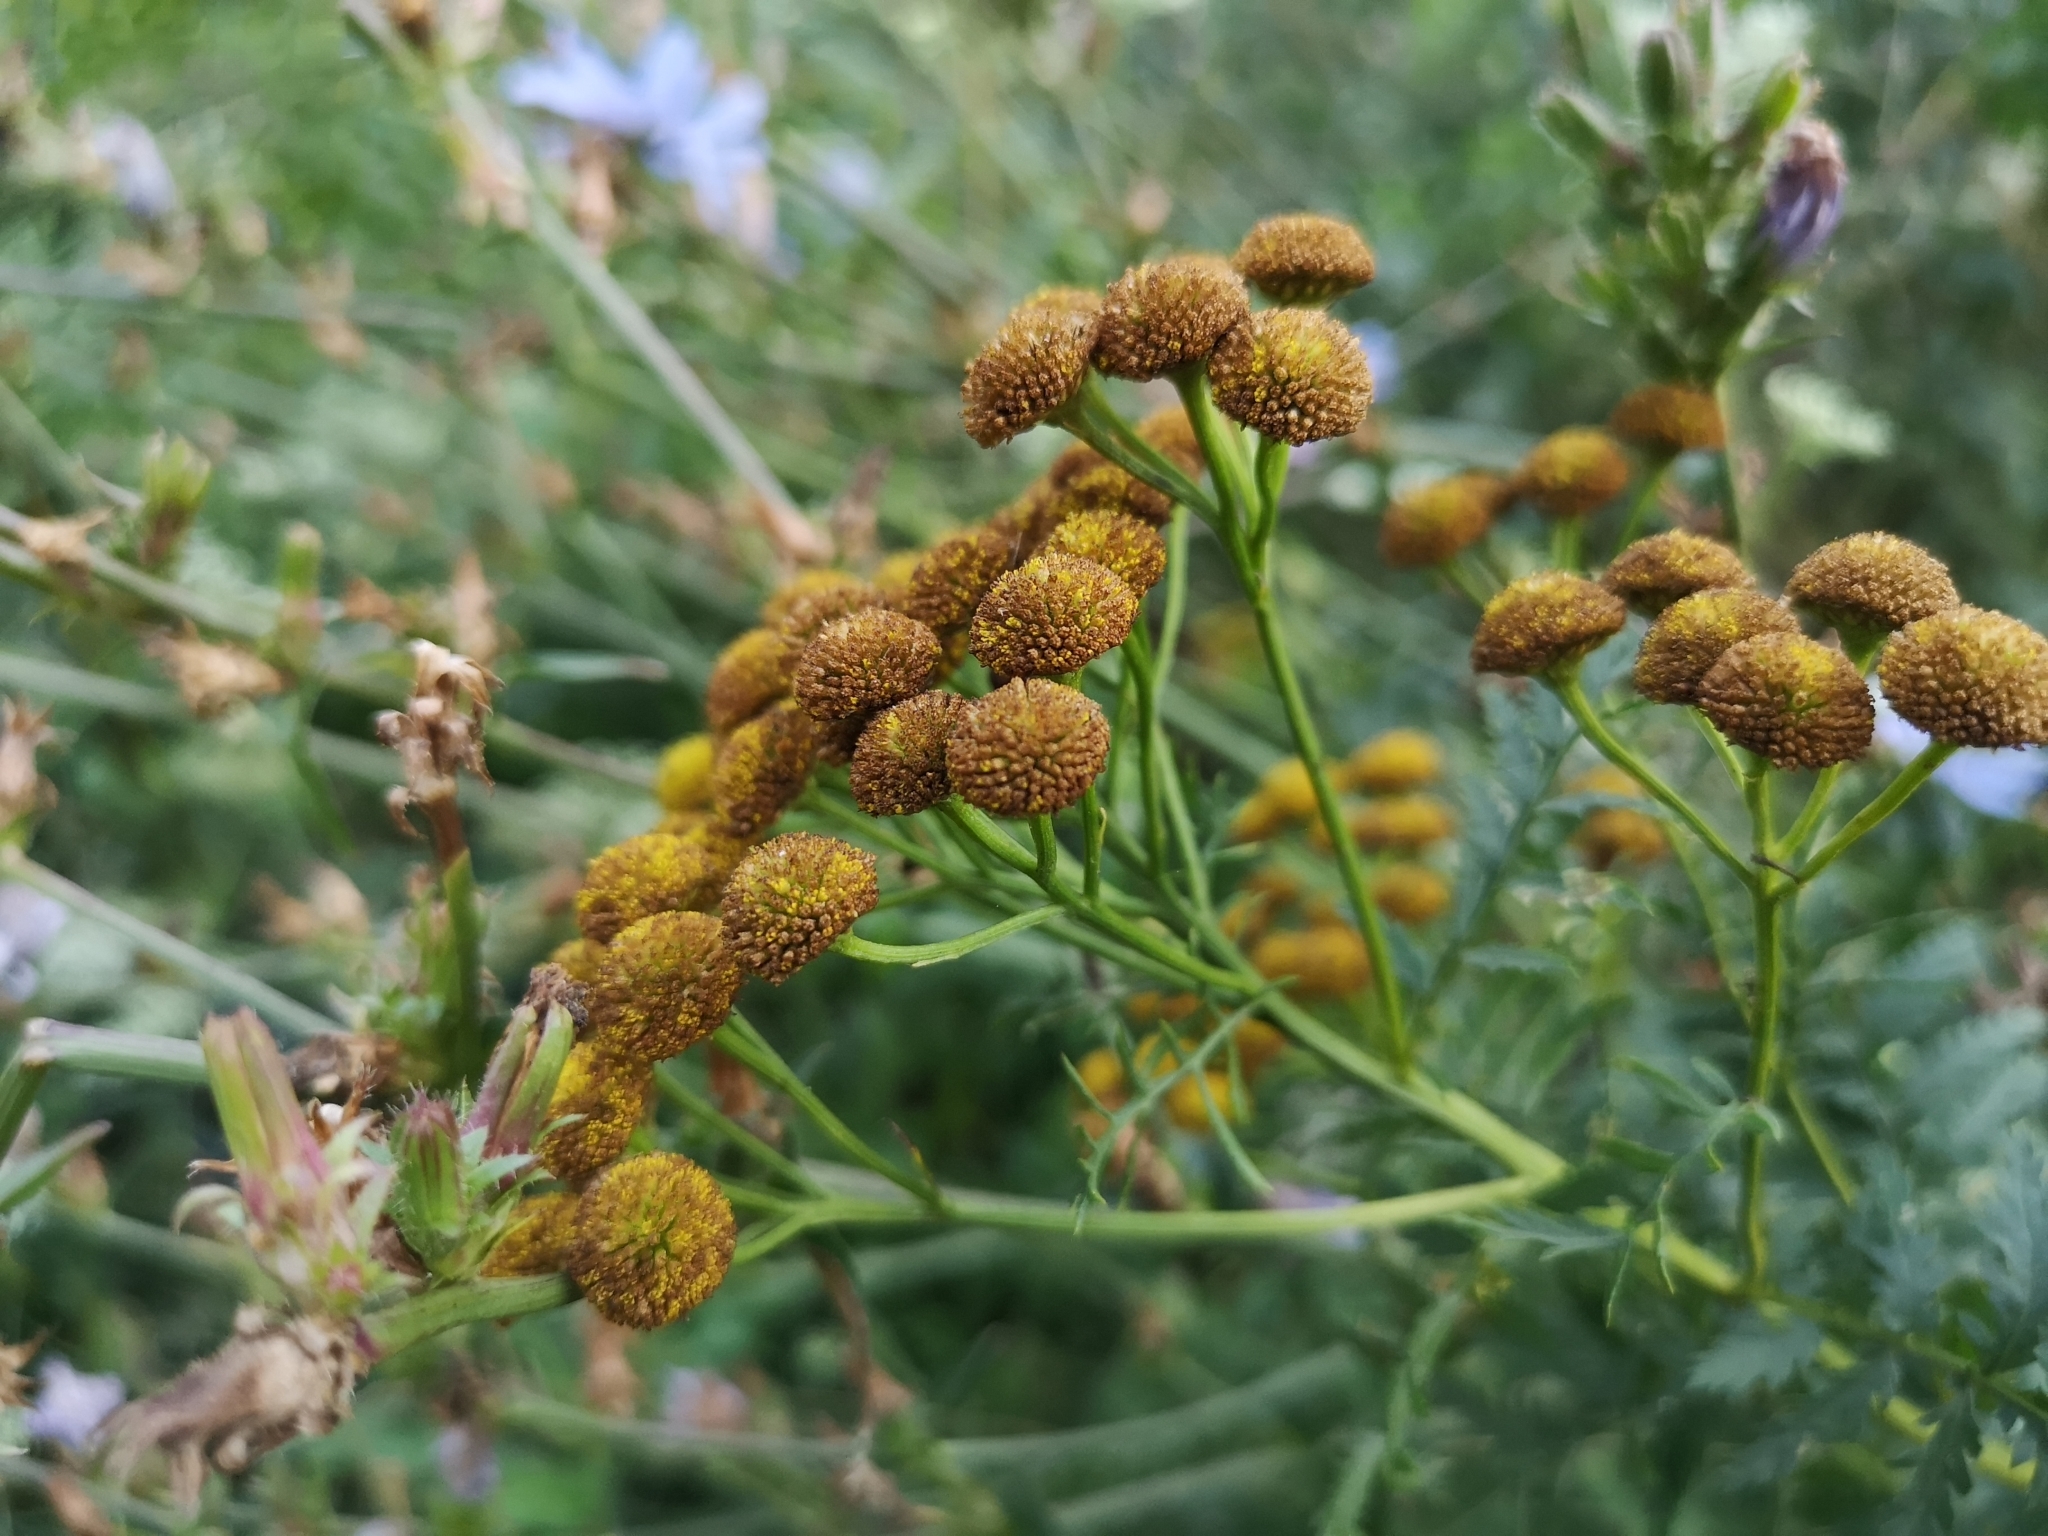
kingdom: Plantae
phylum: Tracheophyta
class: Magnoliopsida
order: Asterales
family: Asteraceae
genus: Tanacetum
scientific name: Tanacetum vulgare
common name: Common tansy
